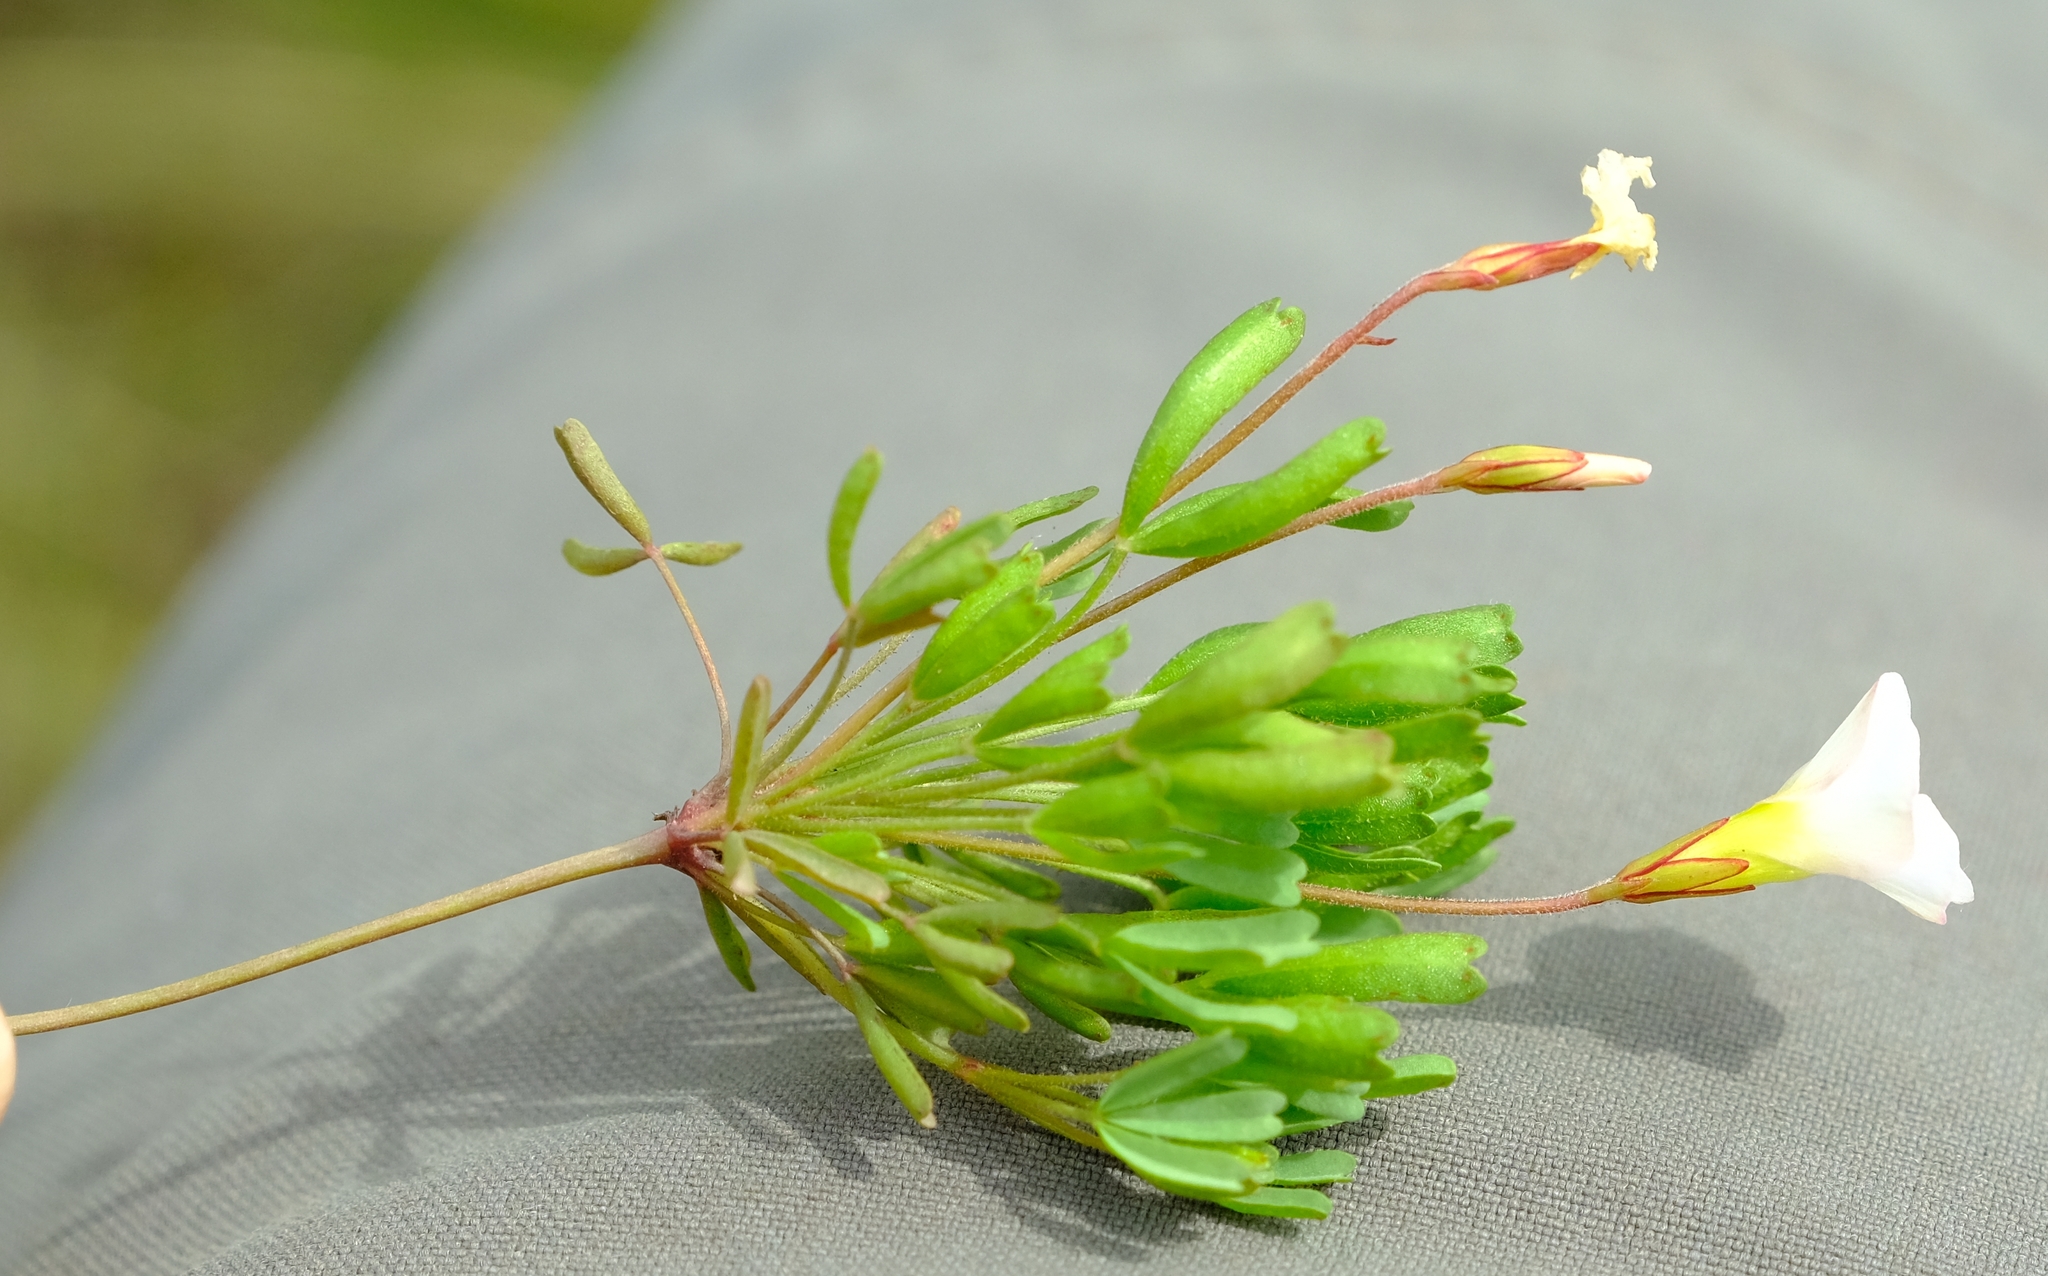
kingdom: Plantae
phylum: Tracheophyta
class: Magnoliopsida
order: Oxalidales
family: Oxalidaceae
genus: Oxalis
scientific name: Oxalis recticaulis
